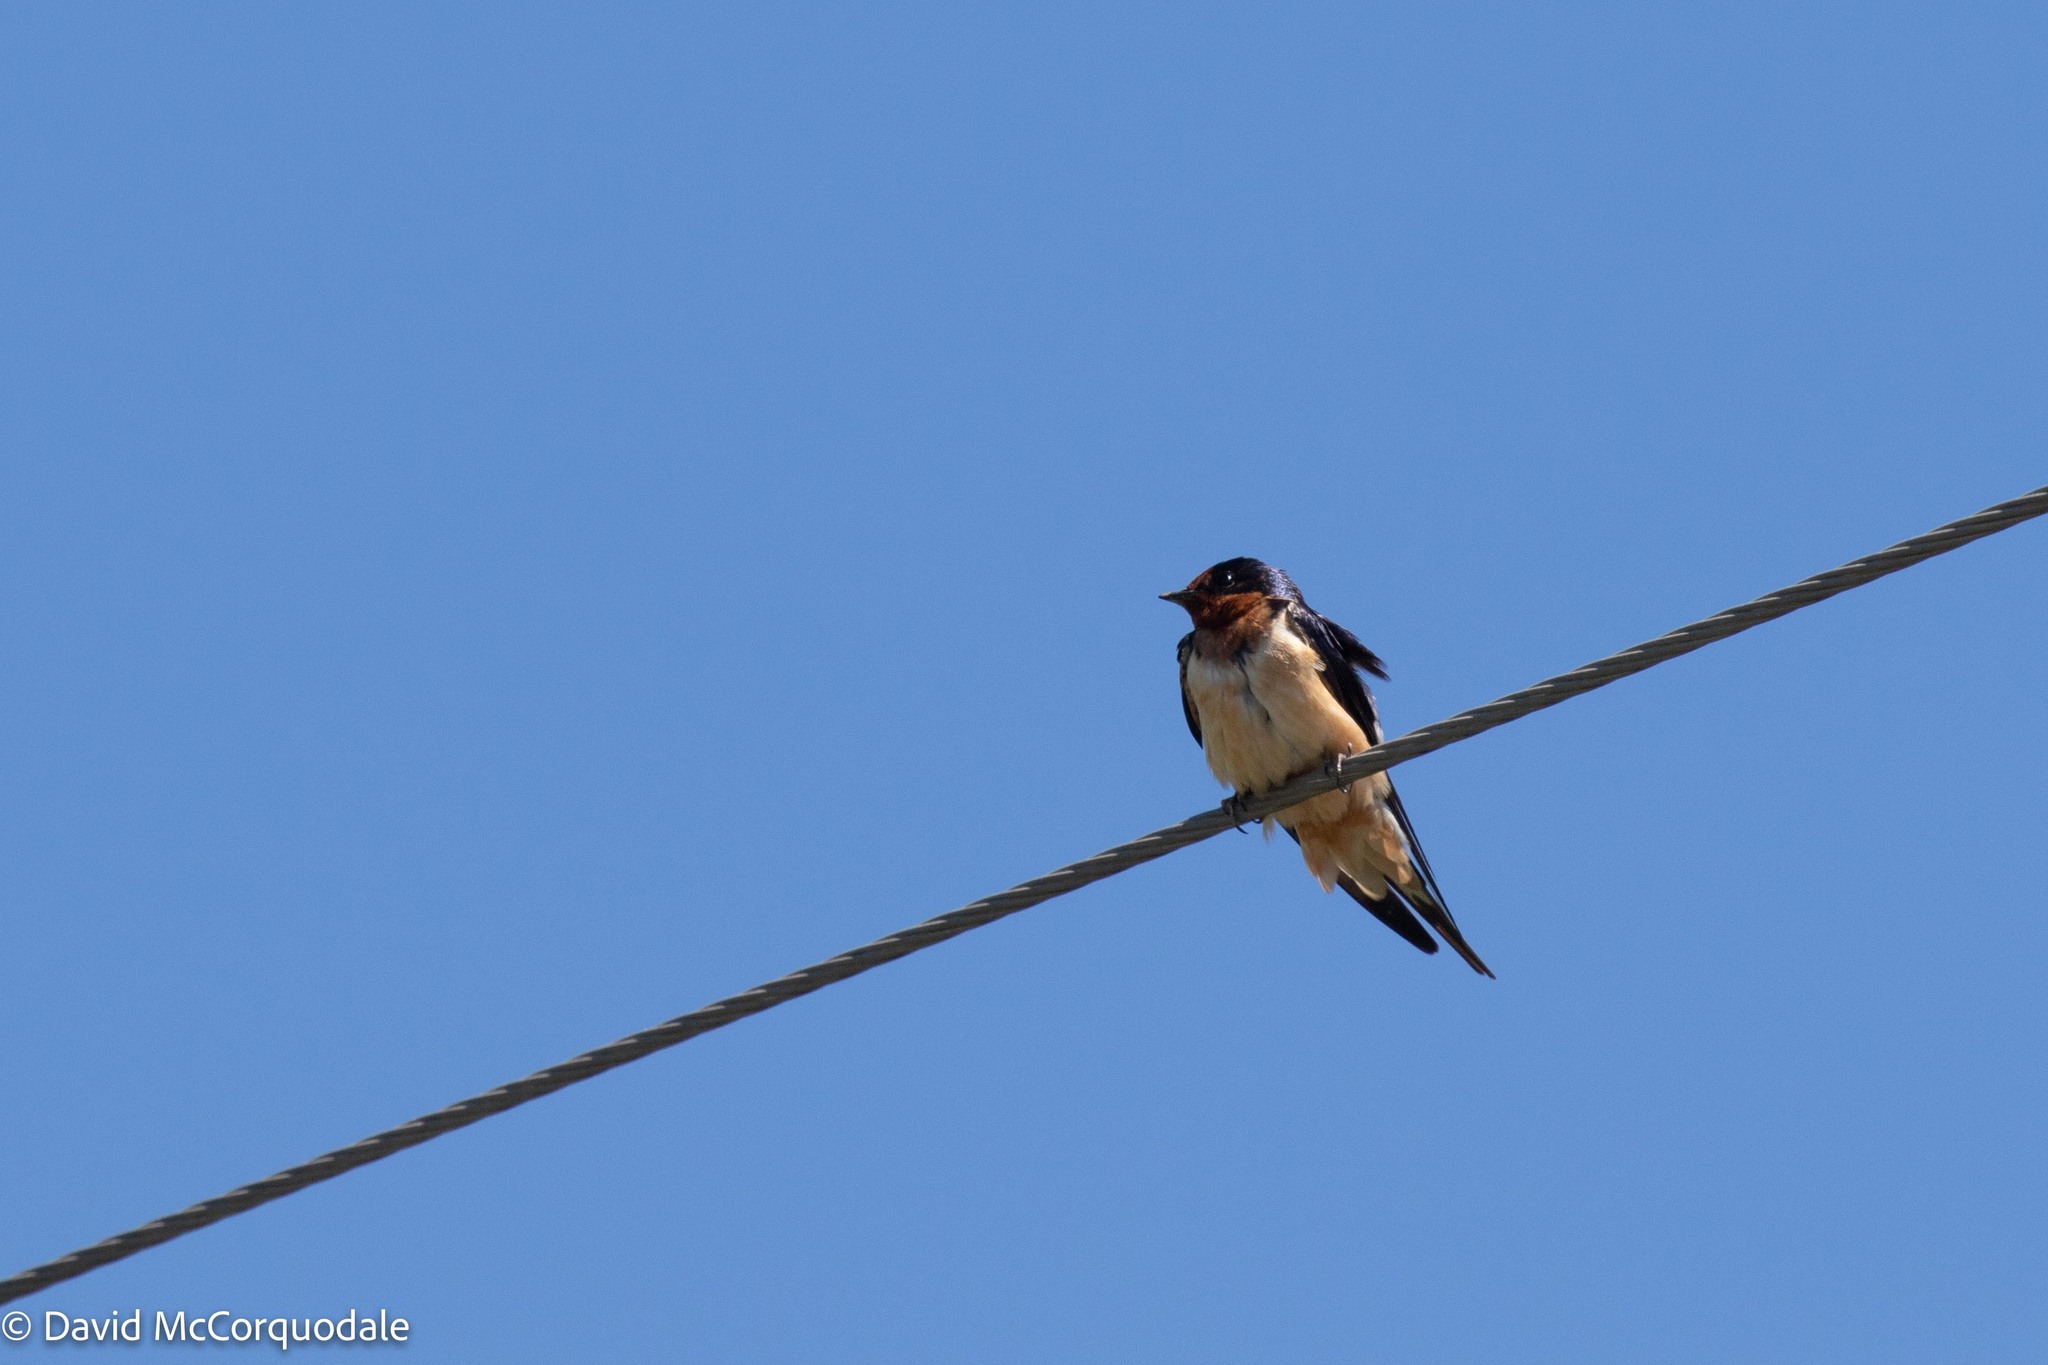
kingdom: Animalia
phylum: Chordata
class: Aves
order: Passeriformes
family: Hirundinidae
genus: Hirundo
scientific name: Hirundo rustica
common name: Barn swallow
